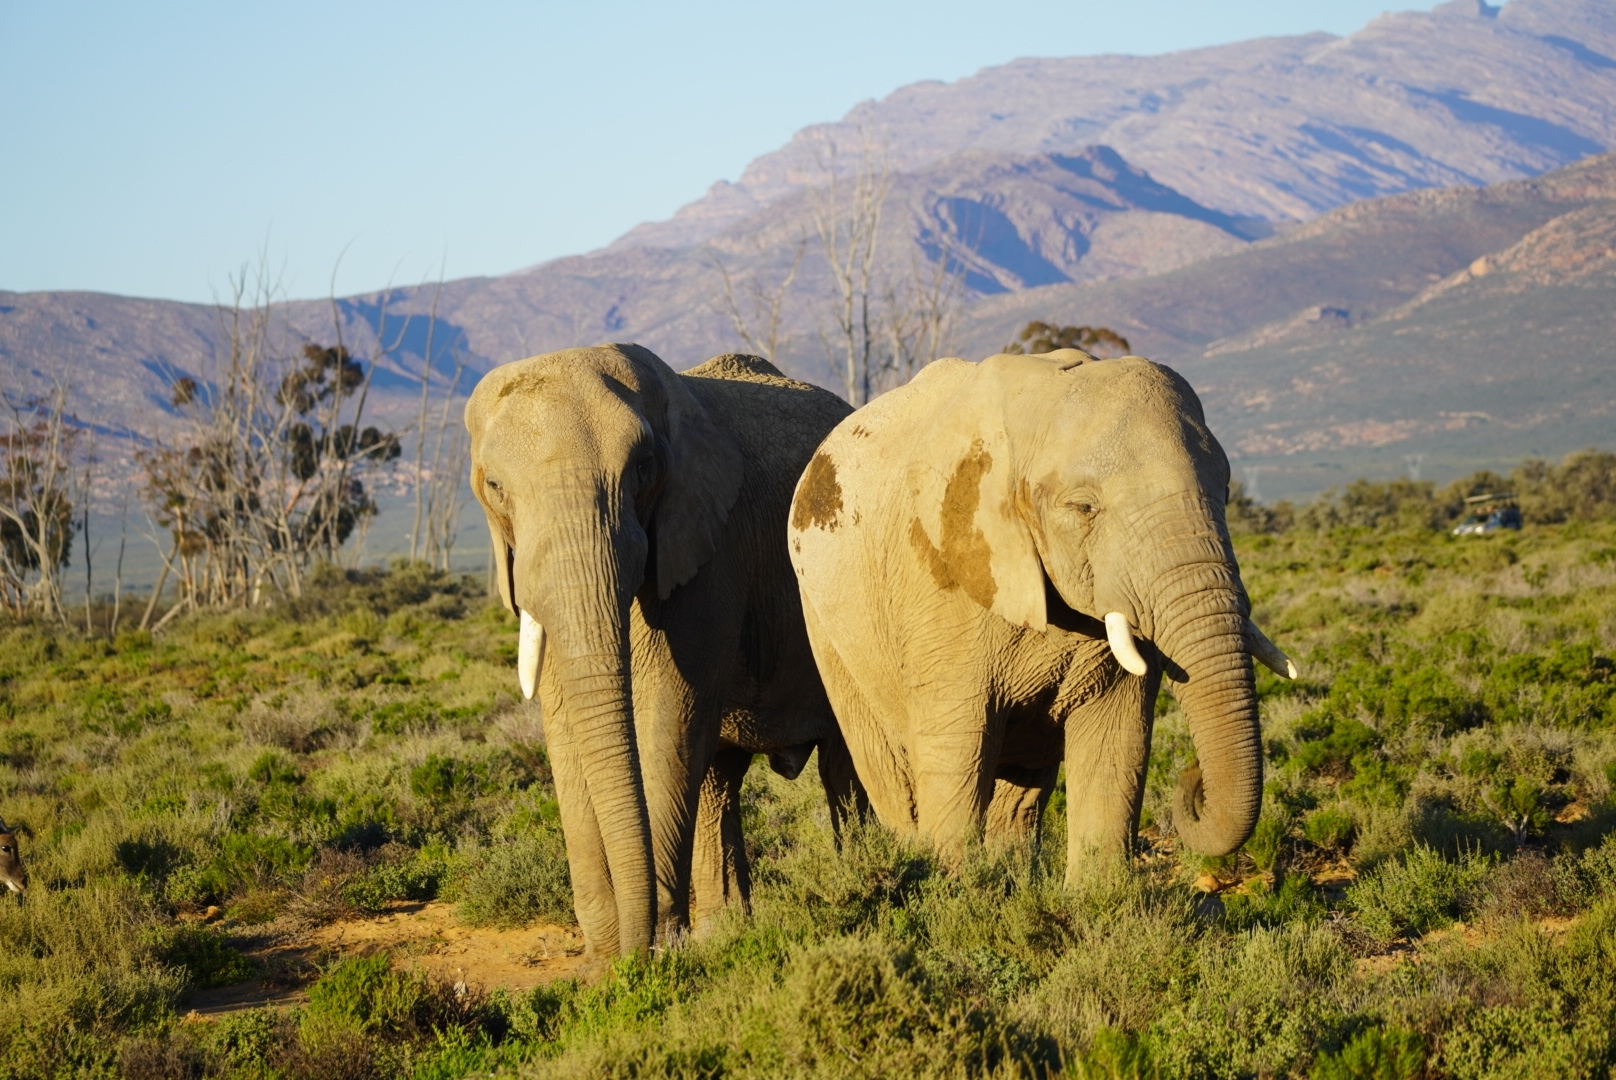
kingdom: Animalia
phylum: Chordata
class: Mammalia
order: Proboscidea
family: Elephantidae
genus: Loxodonta
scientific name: Loxodonta africana
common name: African elephant
